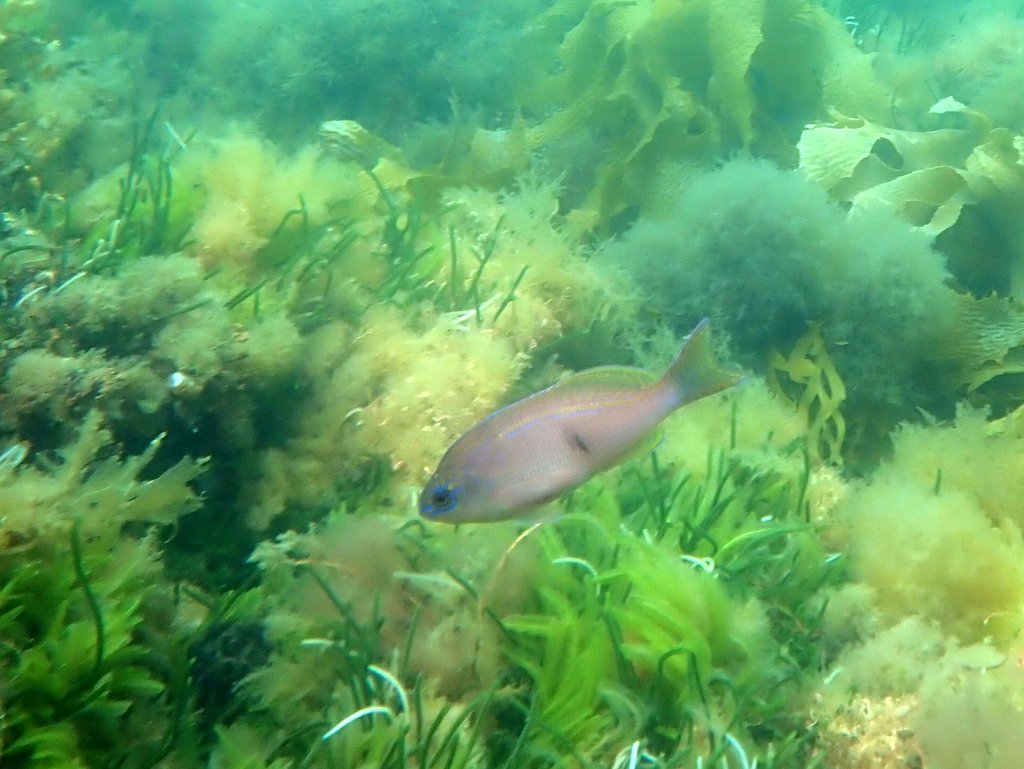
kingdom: Animalia
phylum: Chordata
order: Perciformes
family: Serranidae
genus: Caesioperca
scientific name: Caesioperca rasor
